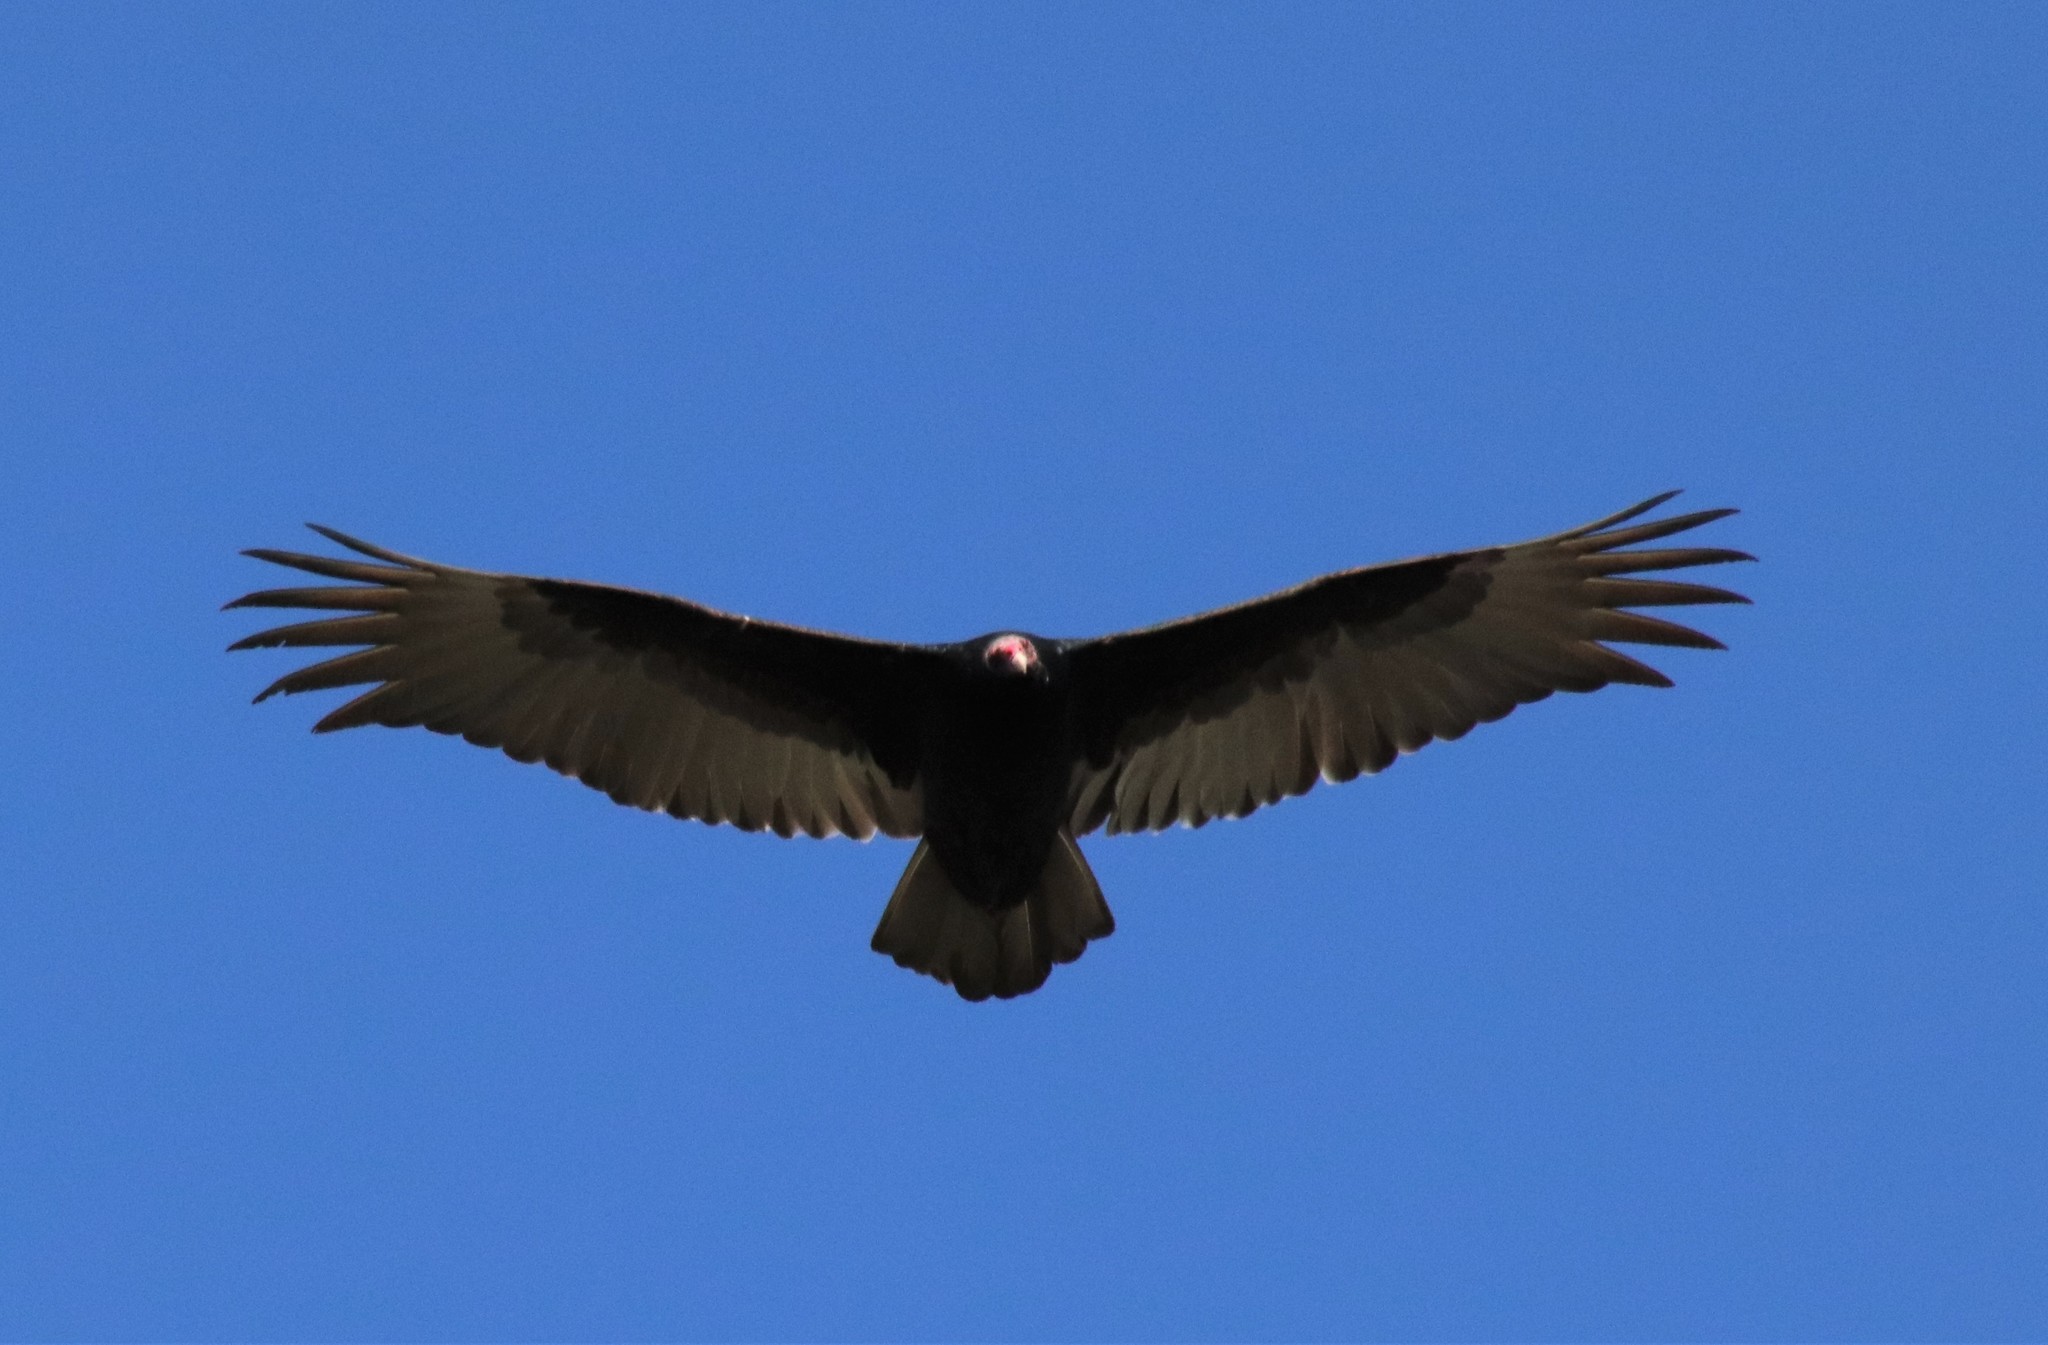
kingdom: Animalia
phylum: Chordata
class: Aves
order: Accipitriformes
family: Cathartidae
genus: Cathartes
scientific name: Cathartes aura
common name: Turkey vulture
